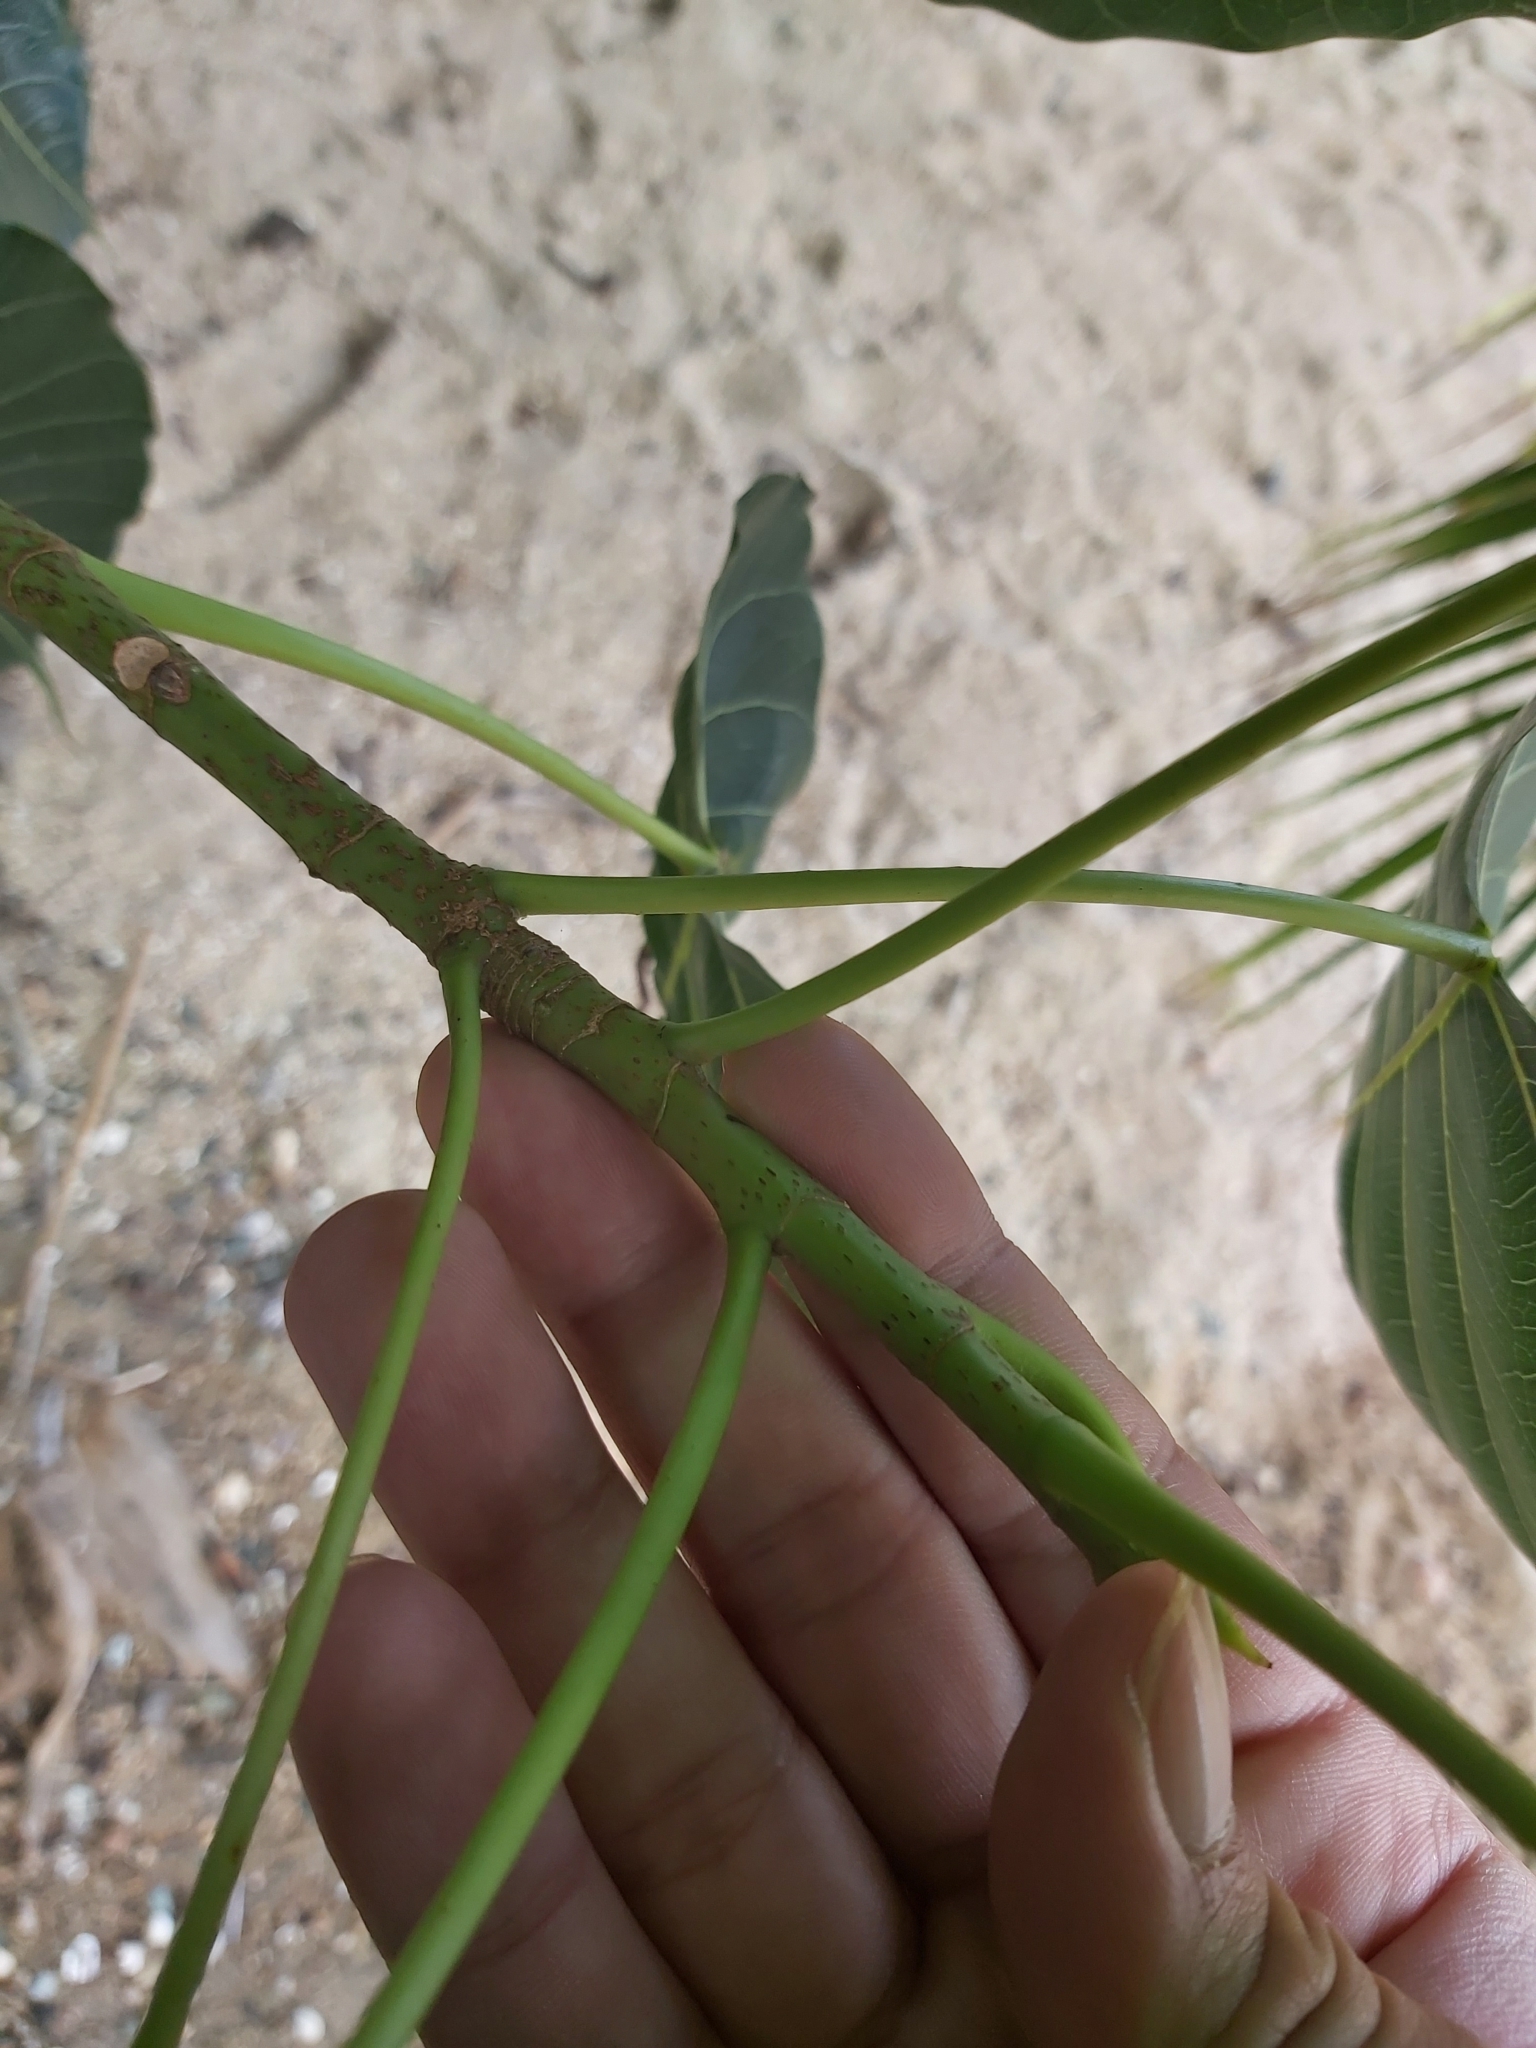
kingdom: Plantae
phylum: Tracheophyta
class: Magnoliopsida
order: Rosales
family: Moraceae
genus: Ficus
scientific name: Ficus religiosa
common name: Bodhi tree
